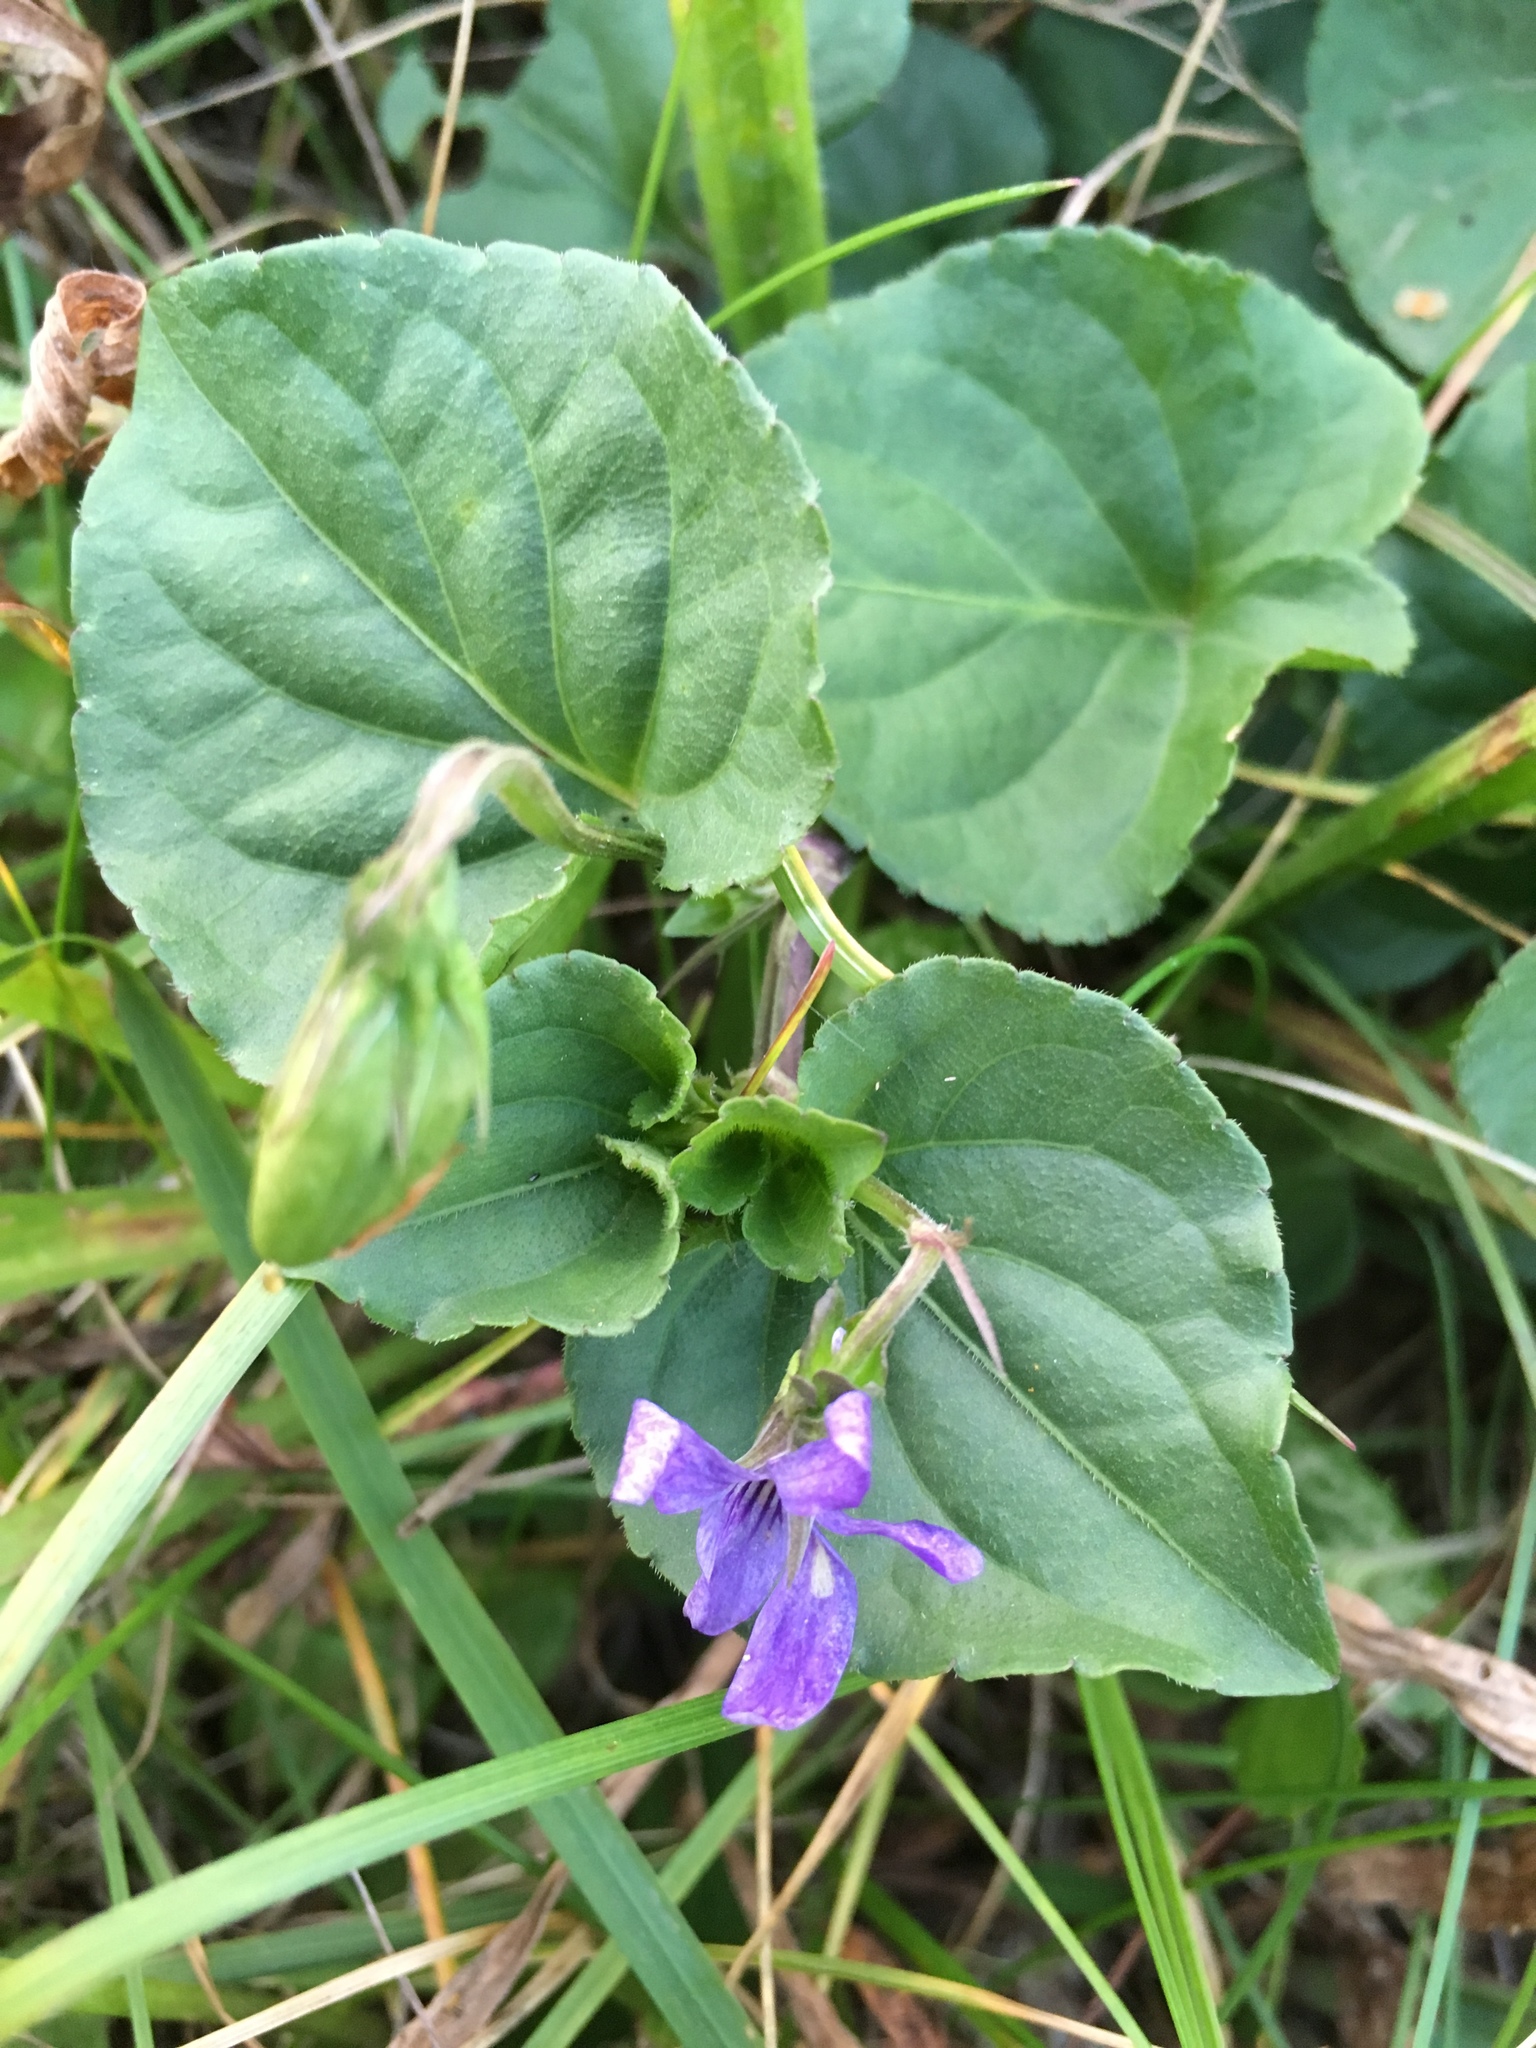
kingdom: Plantae
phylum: Tracheophyta
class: Magnoliopsida
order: Malpighiales
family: Violaceae
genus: Viola
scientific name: Viola reichenbachiana
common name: Early dog-violet
